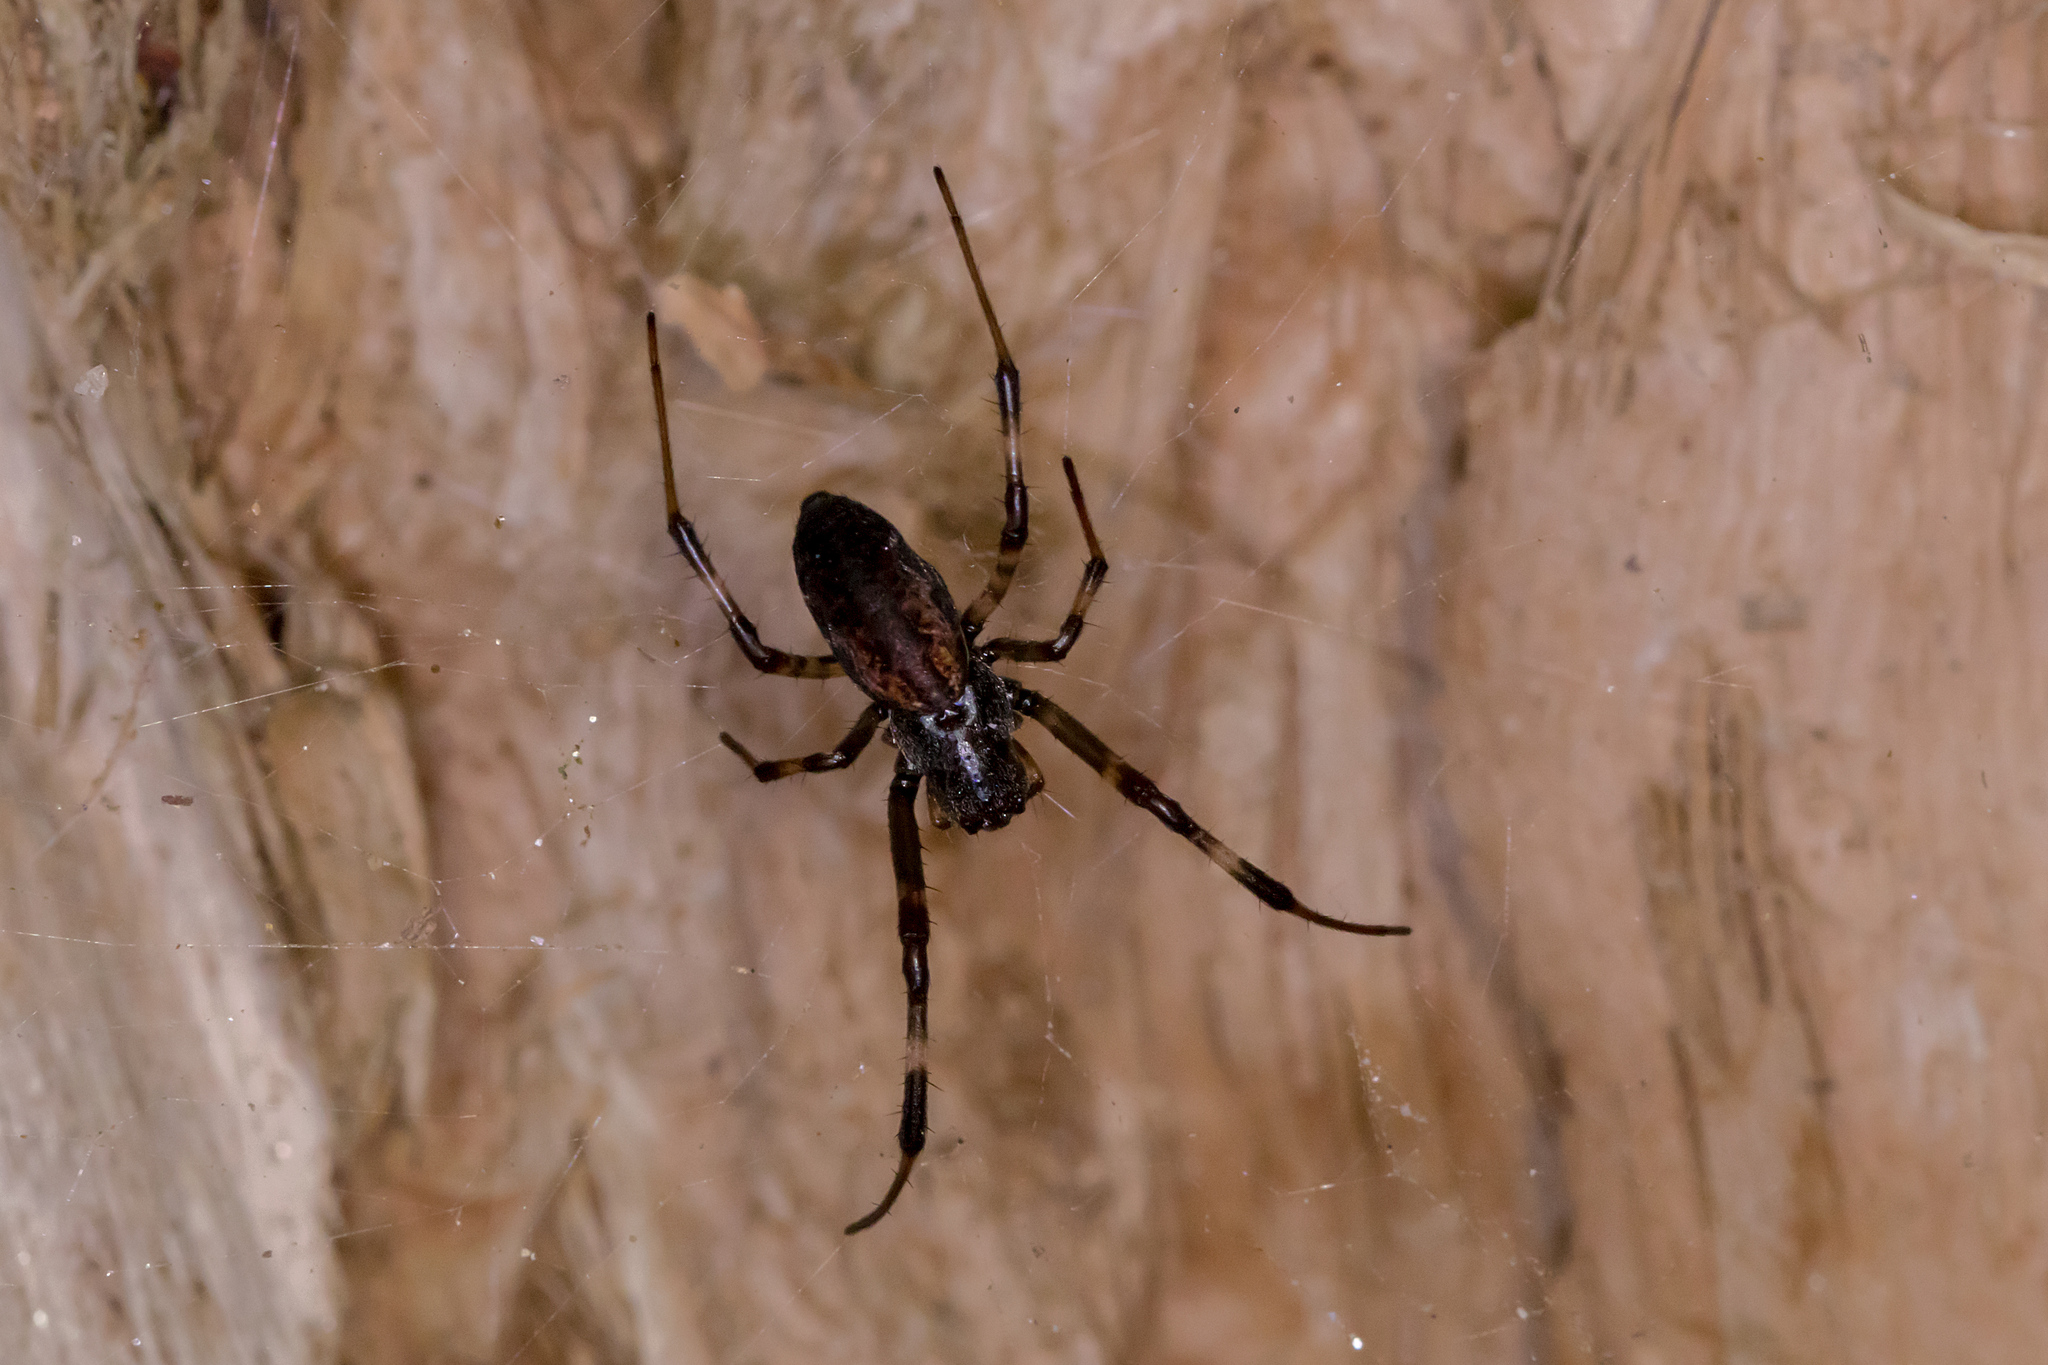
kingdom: Animalia
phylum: Arthropoda
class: Arachnida
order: Araneae
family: Araneidae
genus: Nephilengys
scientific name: Nephilengys papuana
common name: Papuan hermit spider
